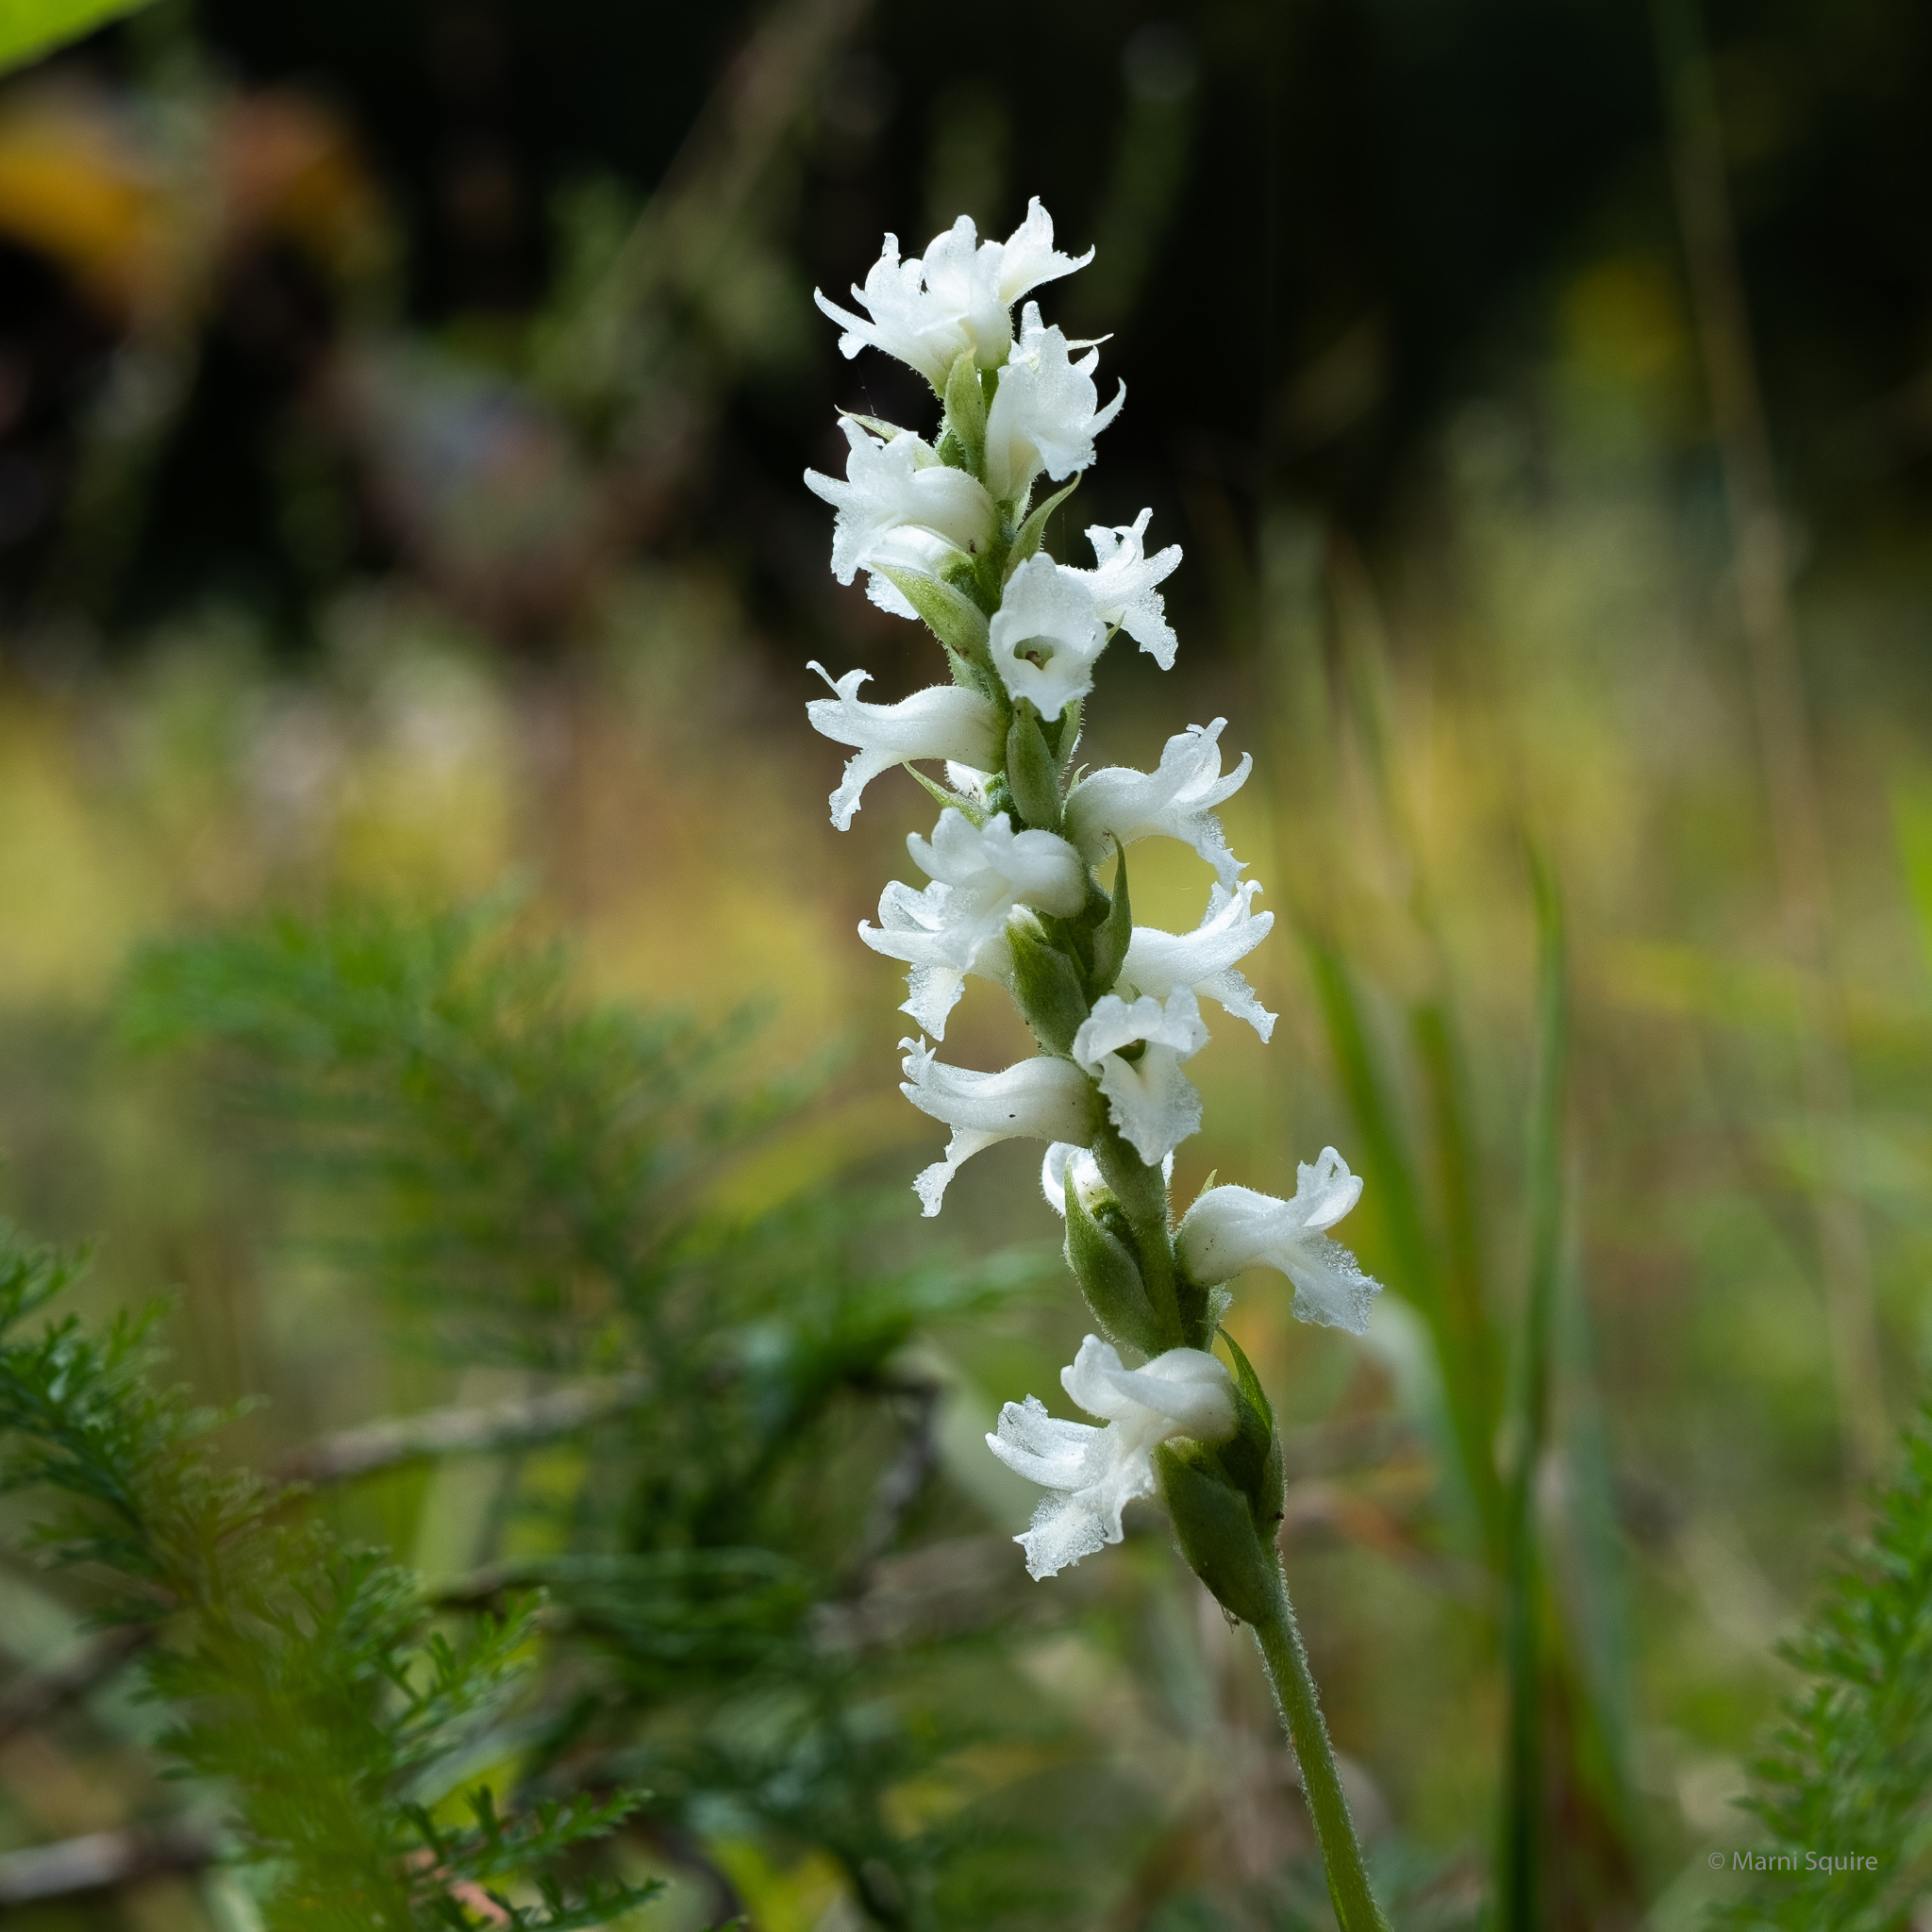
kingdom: Plantae
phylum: Tracheophyta
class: Liliopsida
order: Asparagales
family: Orchidaceae
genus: Spiranthes
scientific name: Spiranthes incurva
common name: Sphinx ladies'-tresses
